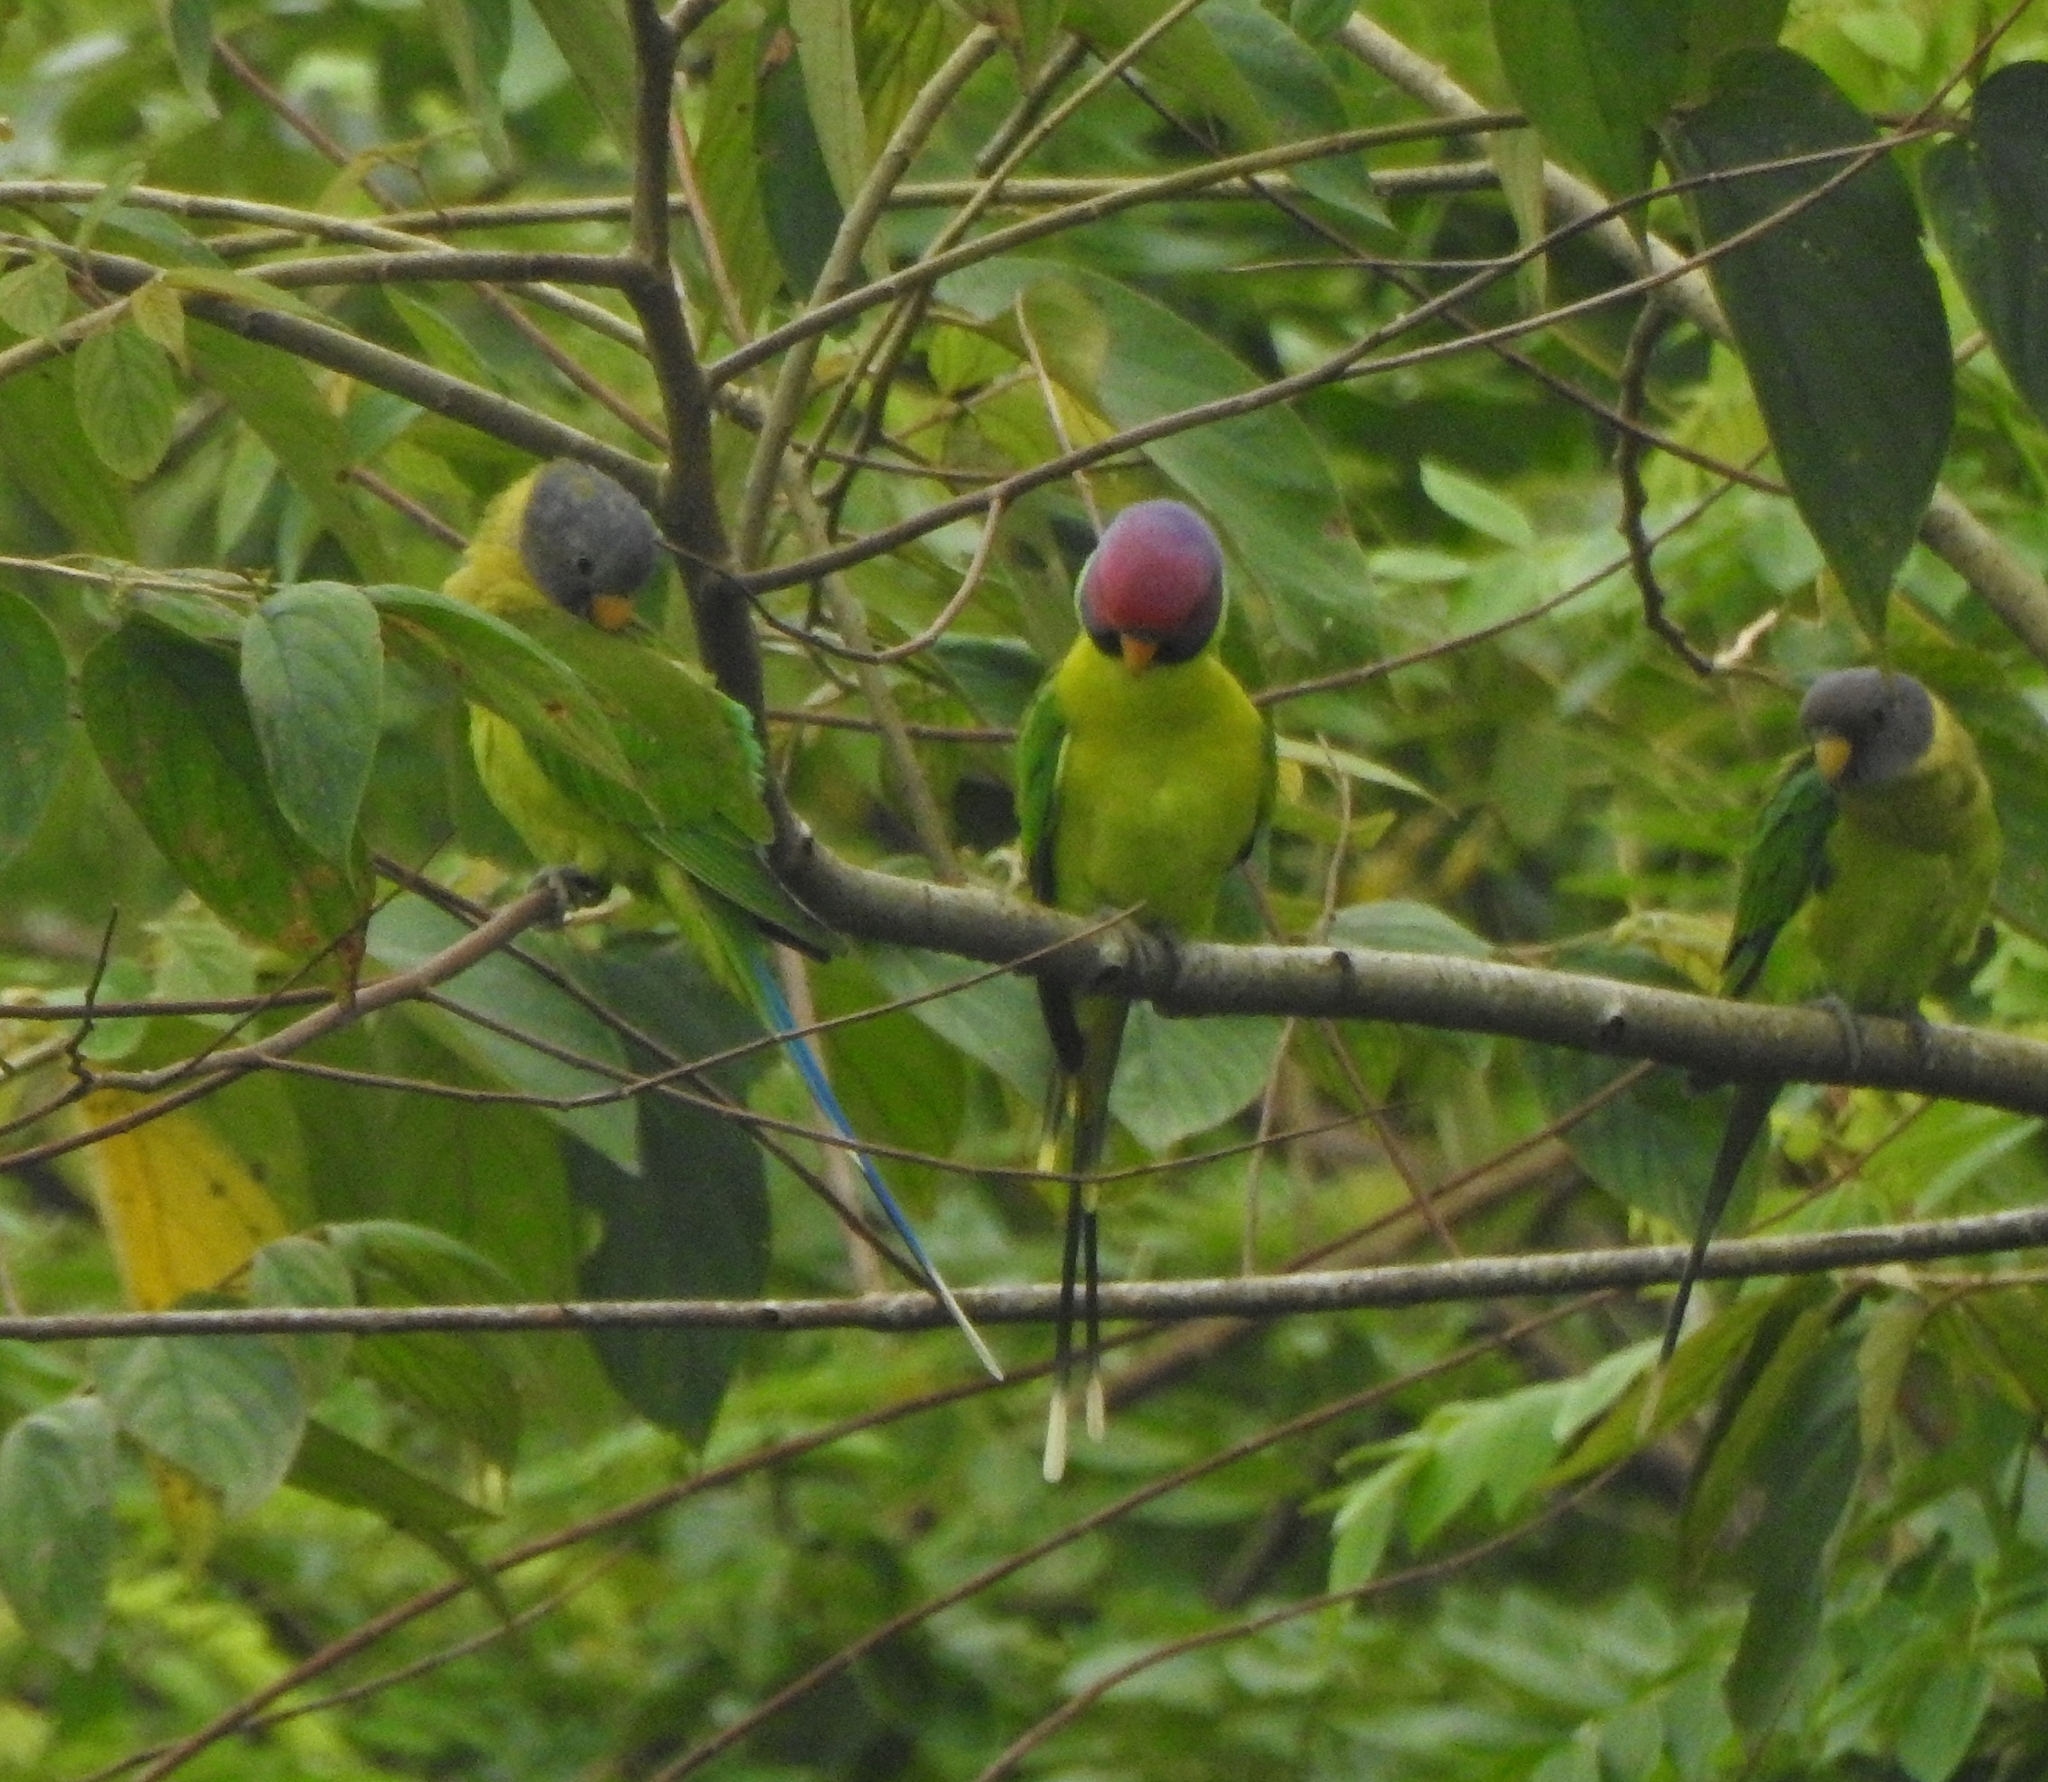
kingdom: Animalia
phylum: Chordata
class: Aves
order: Psittaciformes
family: Psittacidae
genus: Psittacula
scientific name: Psittacula cyanocephala
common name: Plum-headed parakeet
